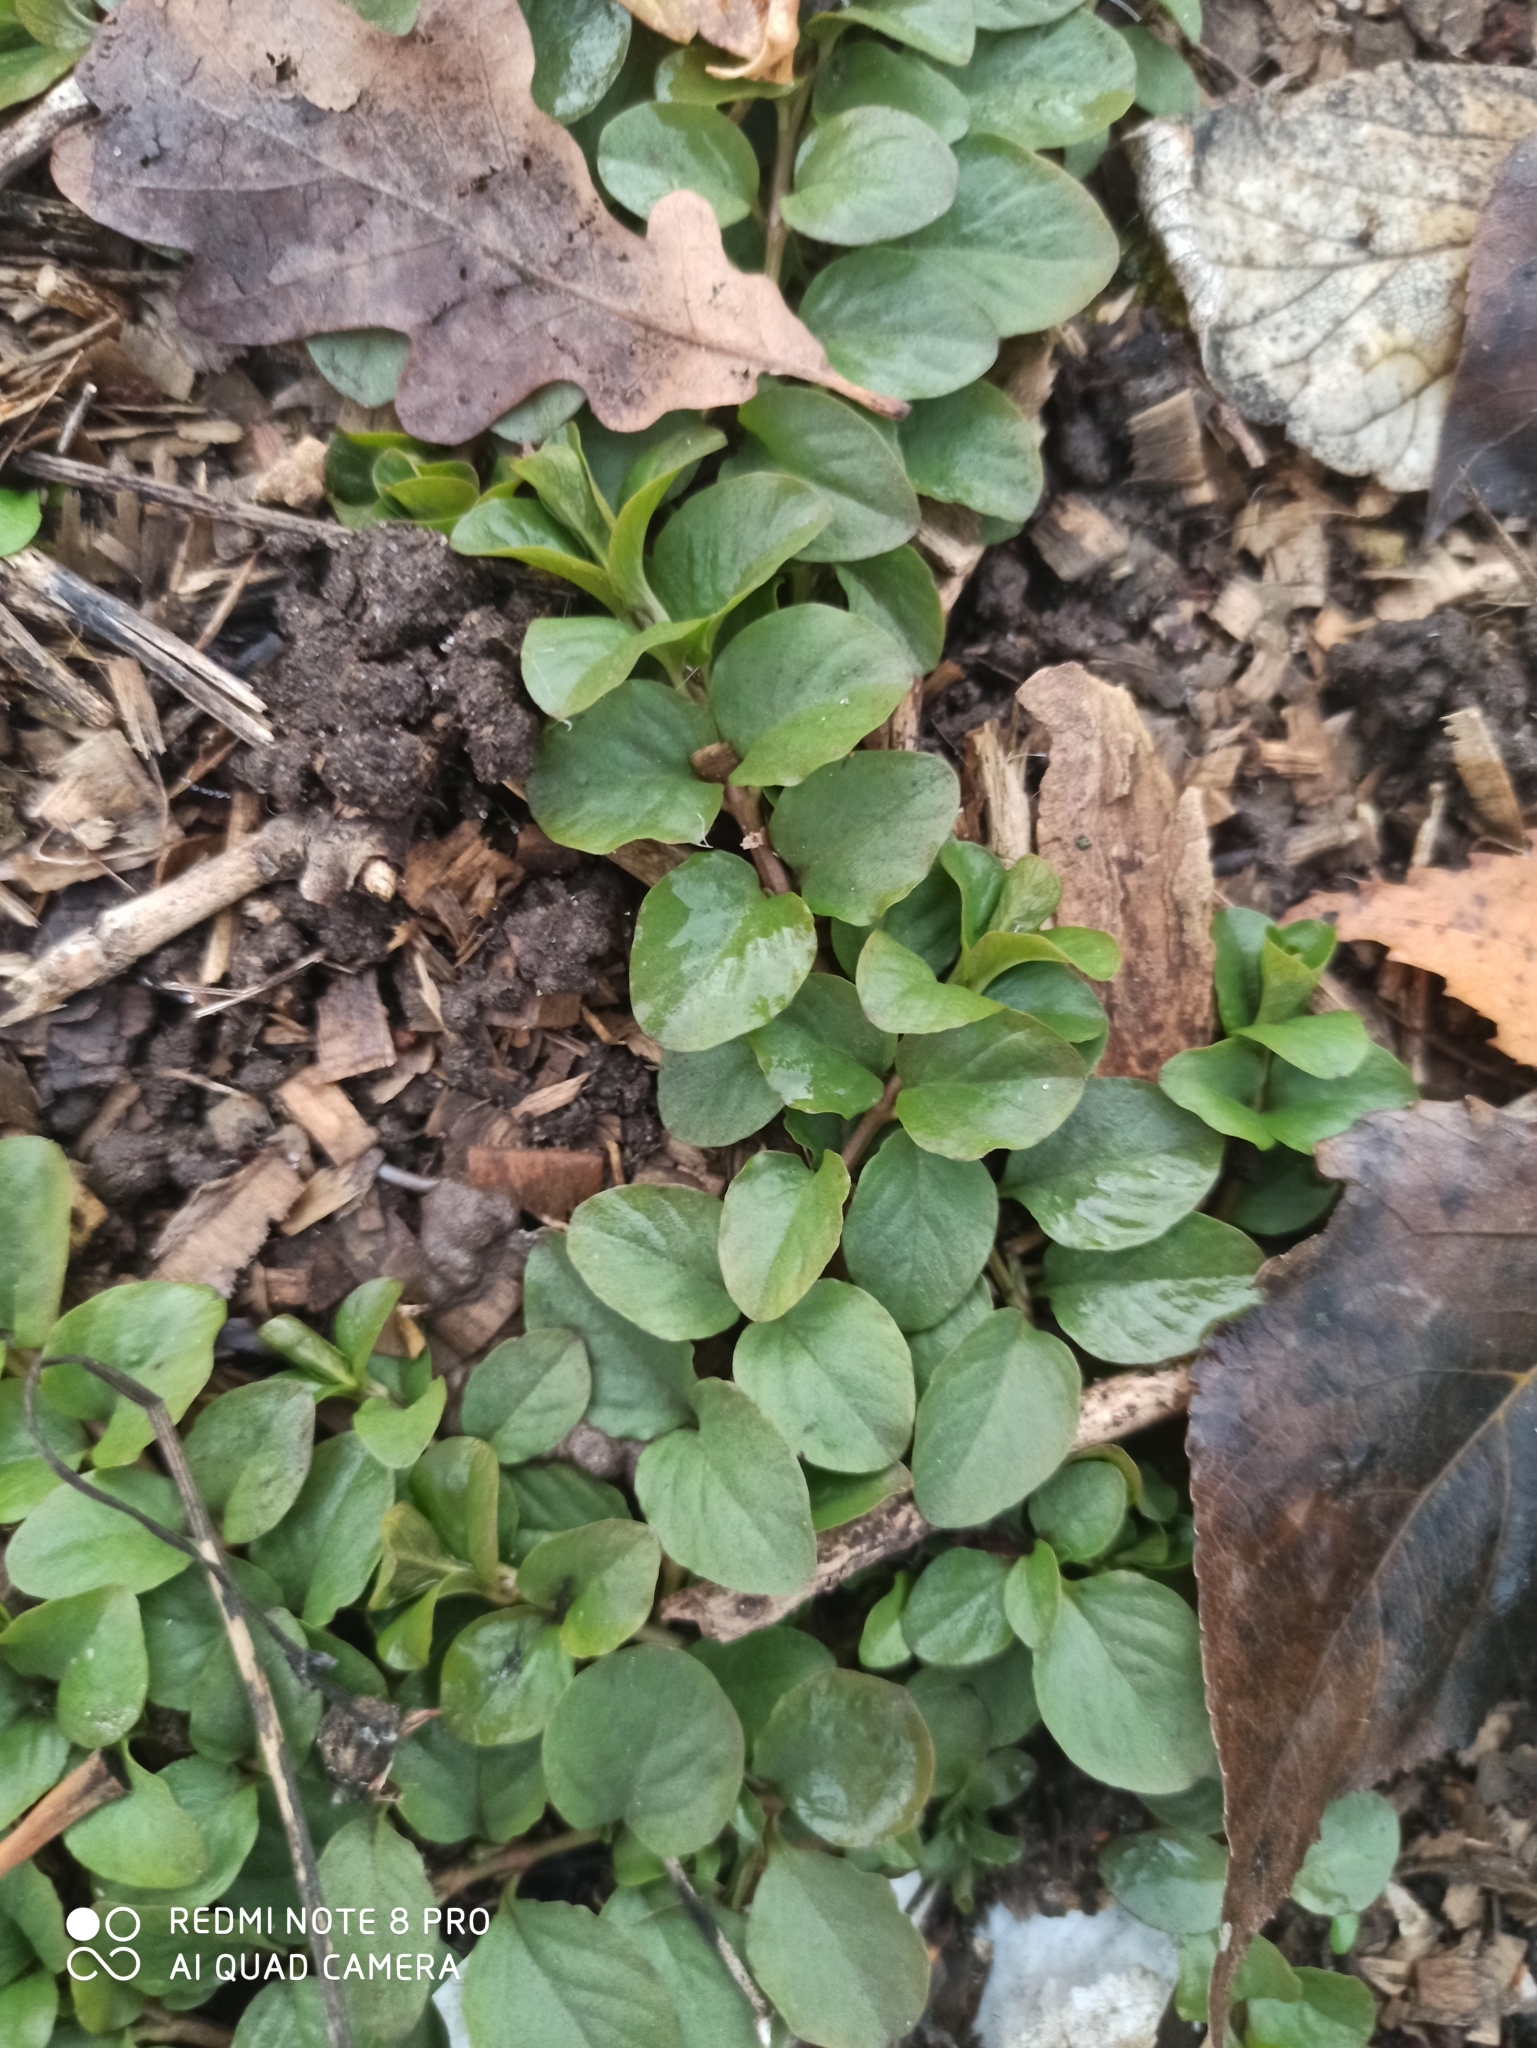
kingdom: Plantae
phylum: Tracheophyta
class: Magnoliopsida
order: Ericales
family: Primulaceae
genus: Lysimachia
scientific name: Lysimachia nummularia
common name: Moneywort
